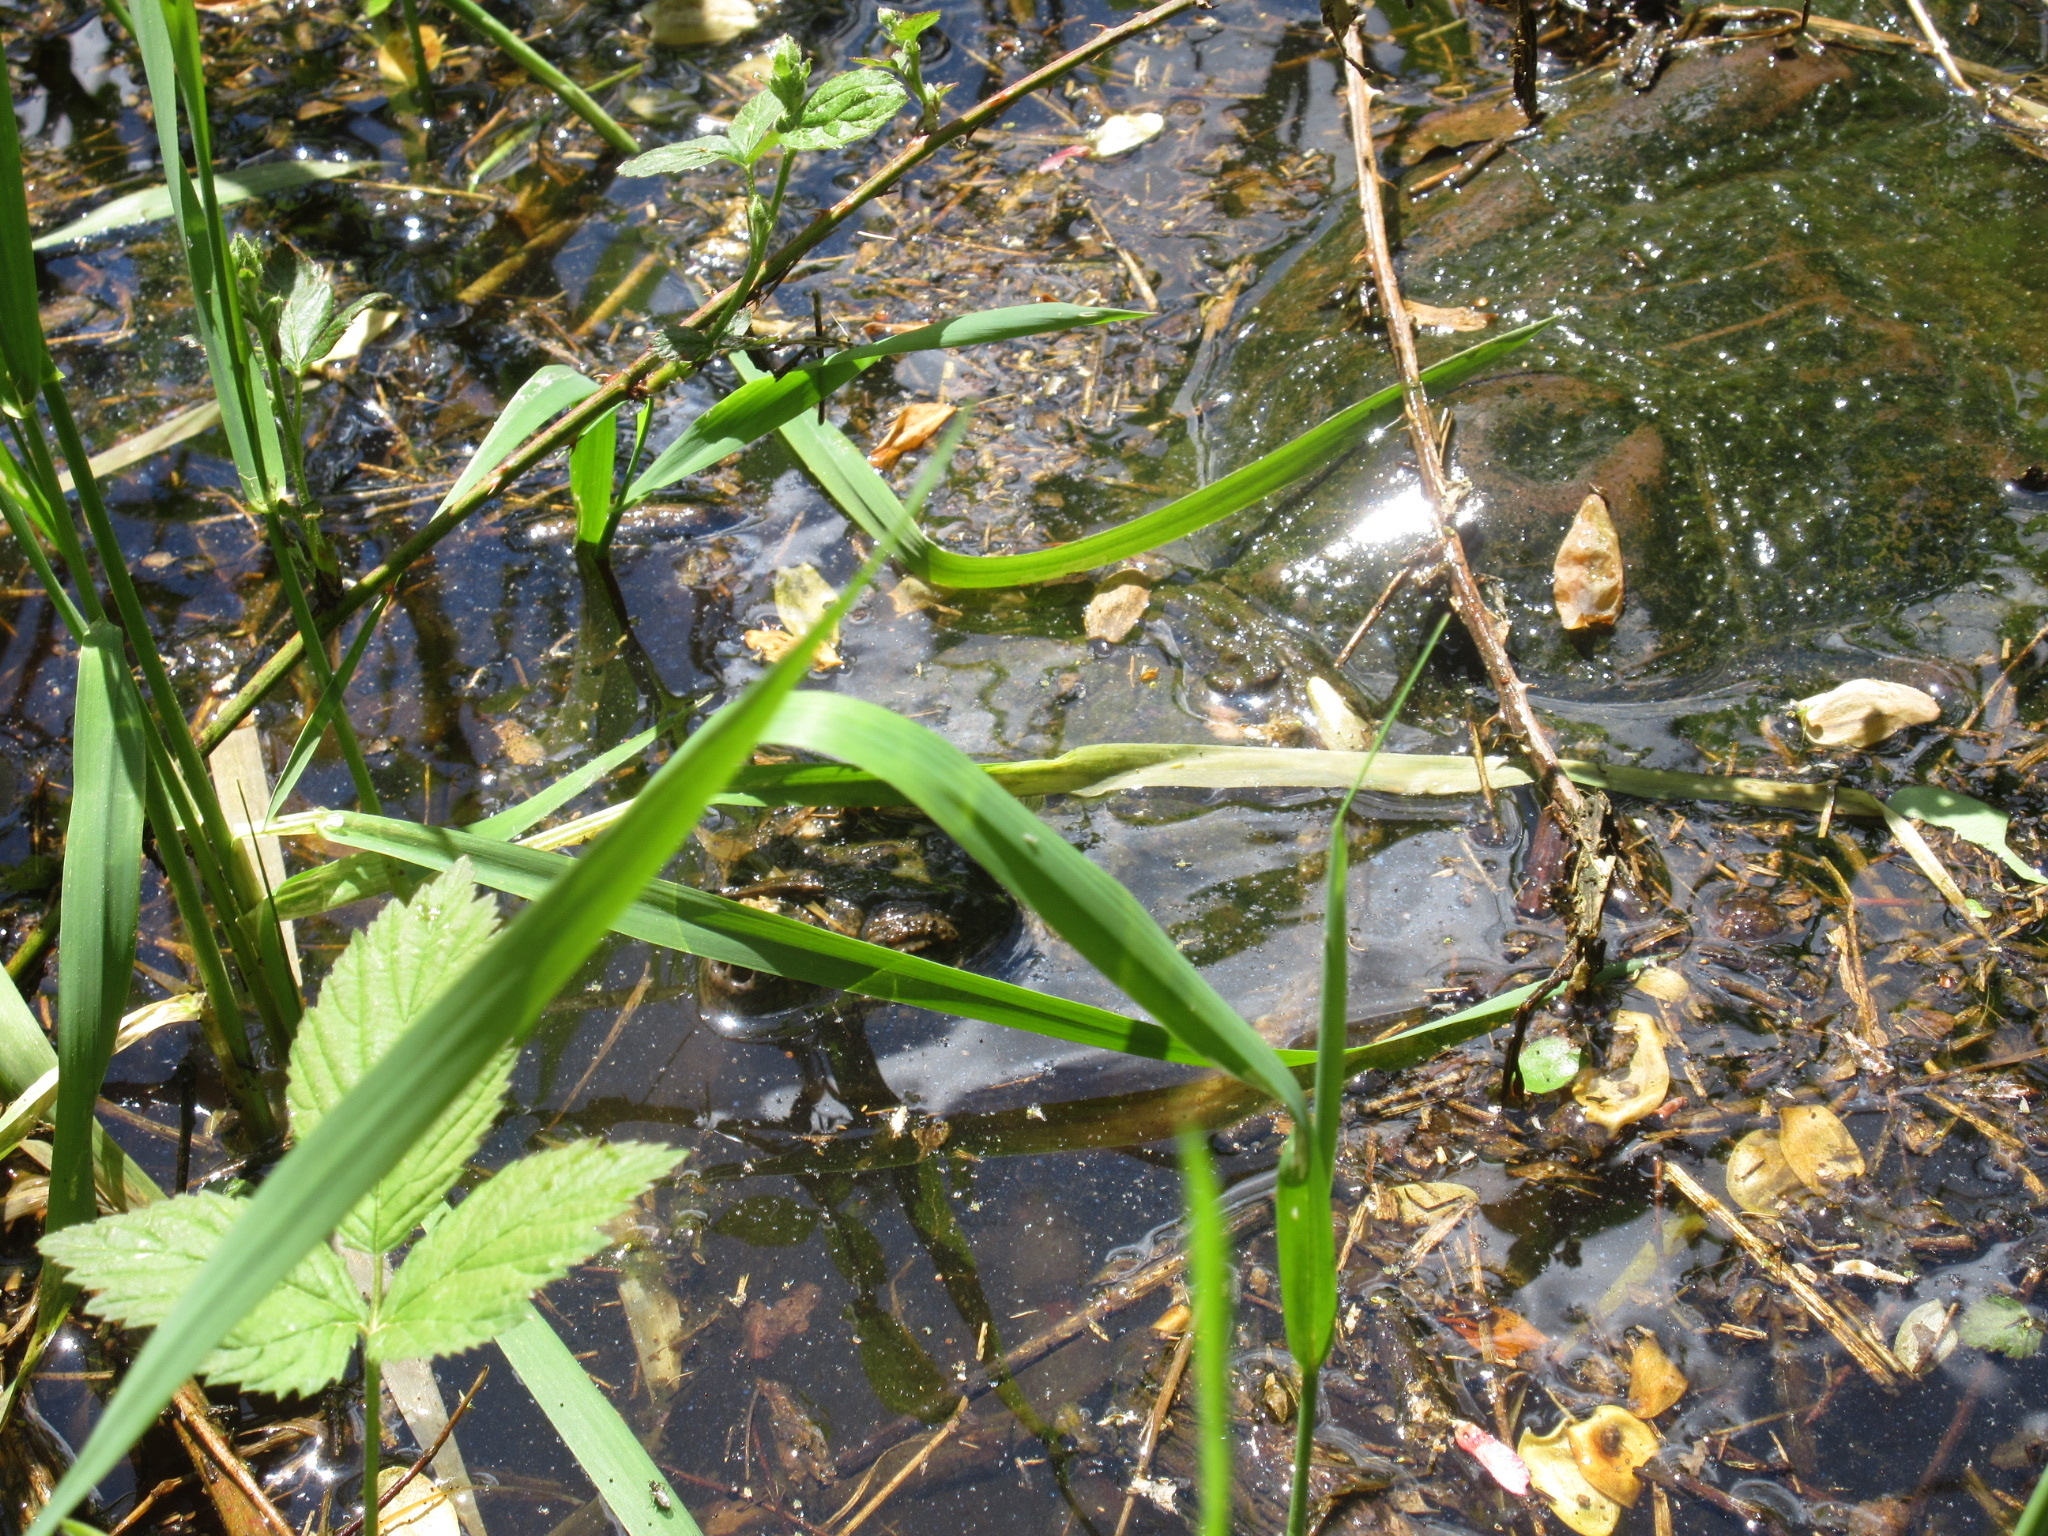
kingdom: Animalia
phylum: Chordata
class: Testudines
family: Chelydridae
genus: Chelydra
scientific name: Chelydra serpentina
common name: Common snapping turtle
